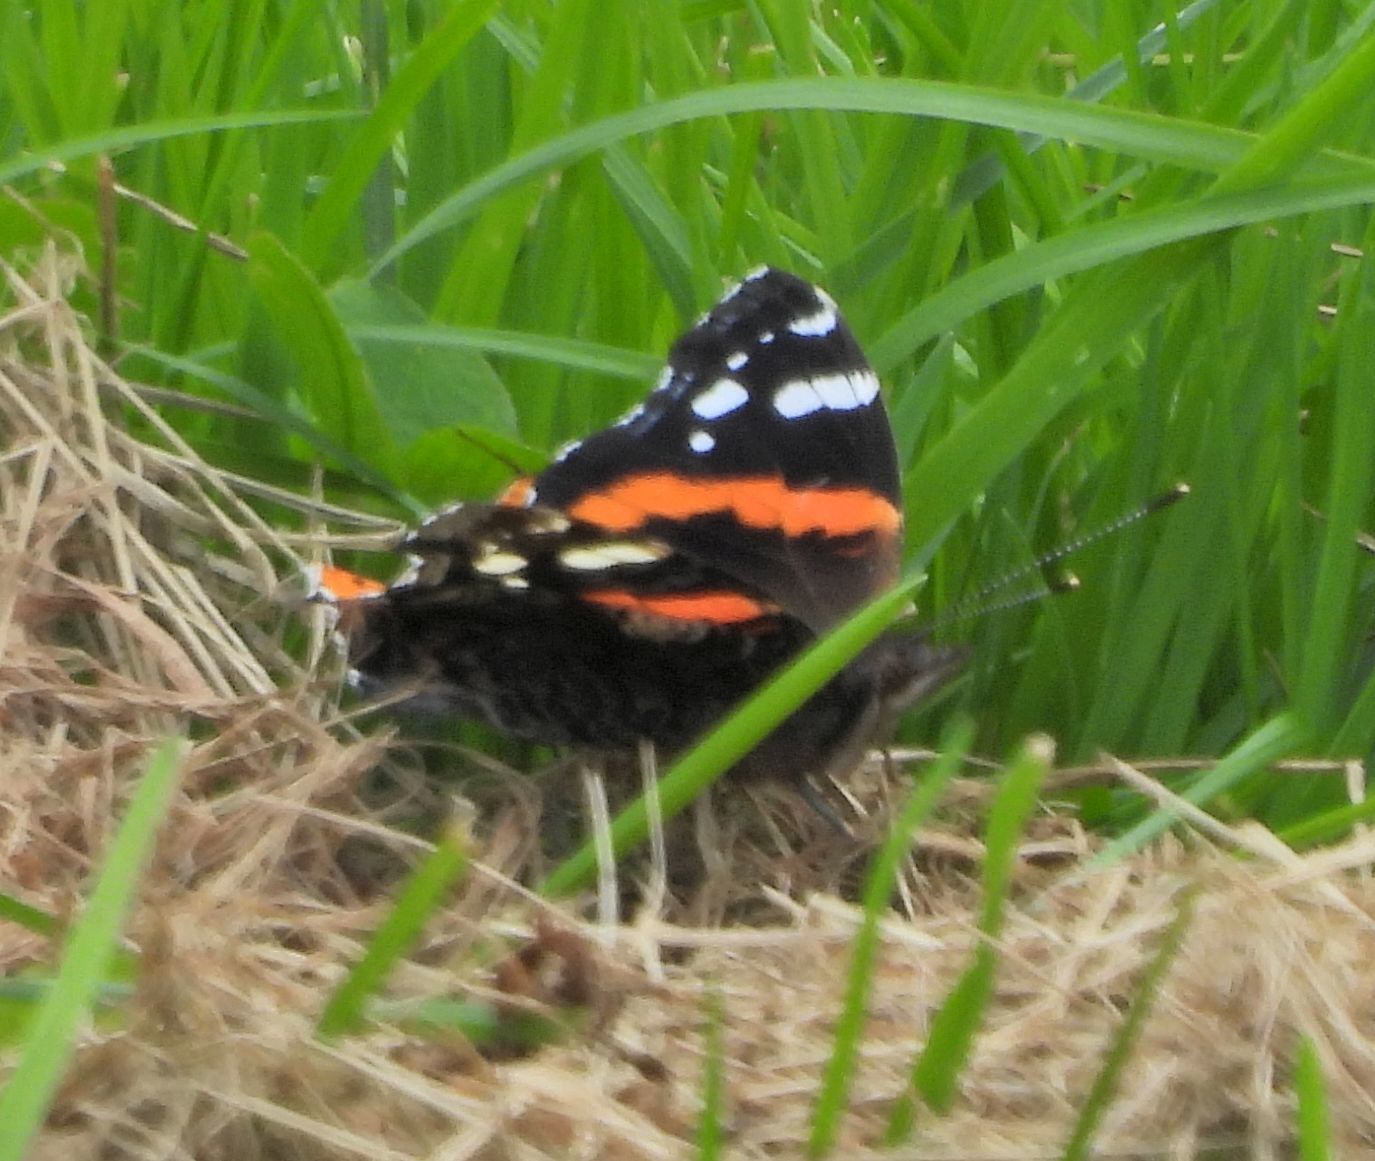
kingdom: Animalia
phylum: Arthropoda
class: Insecta
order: Lepidoptera
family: Nymphalidae
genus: Vanessa
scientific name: Vanessa atalanta
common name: Red admiral
